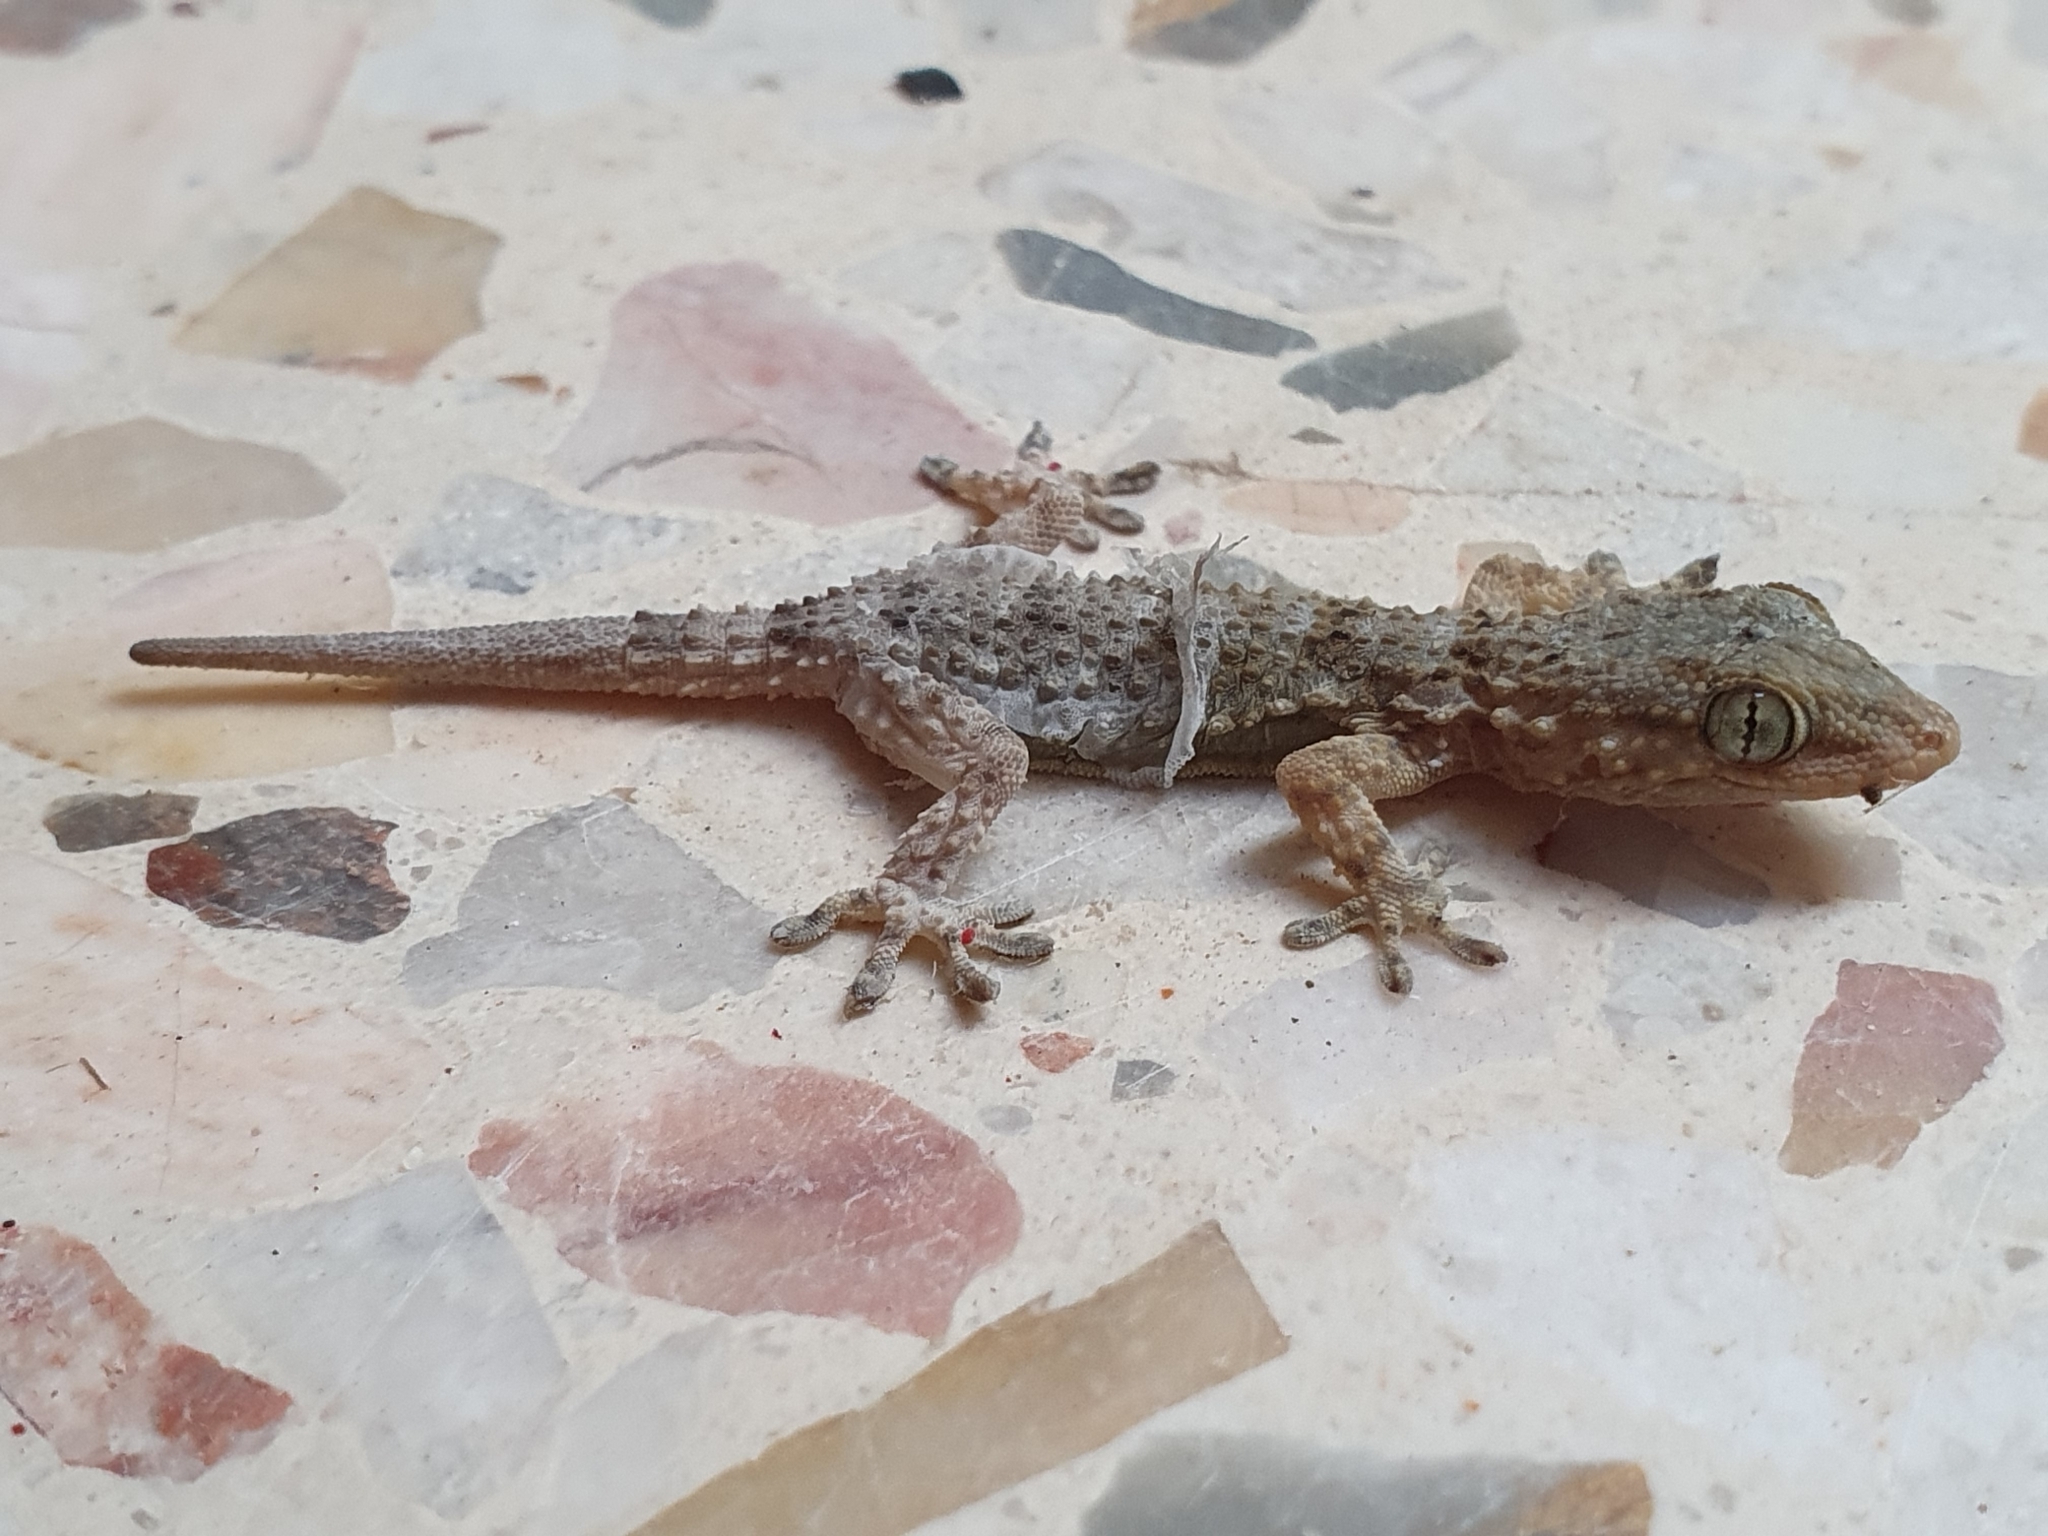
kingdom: Animalia
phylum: Chordata
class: Squamata
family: Phyllodactylidae
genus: Tarentola
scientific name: Tarentola mauritanica
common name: Moorish gecko
